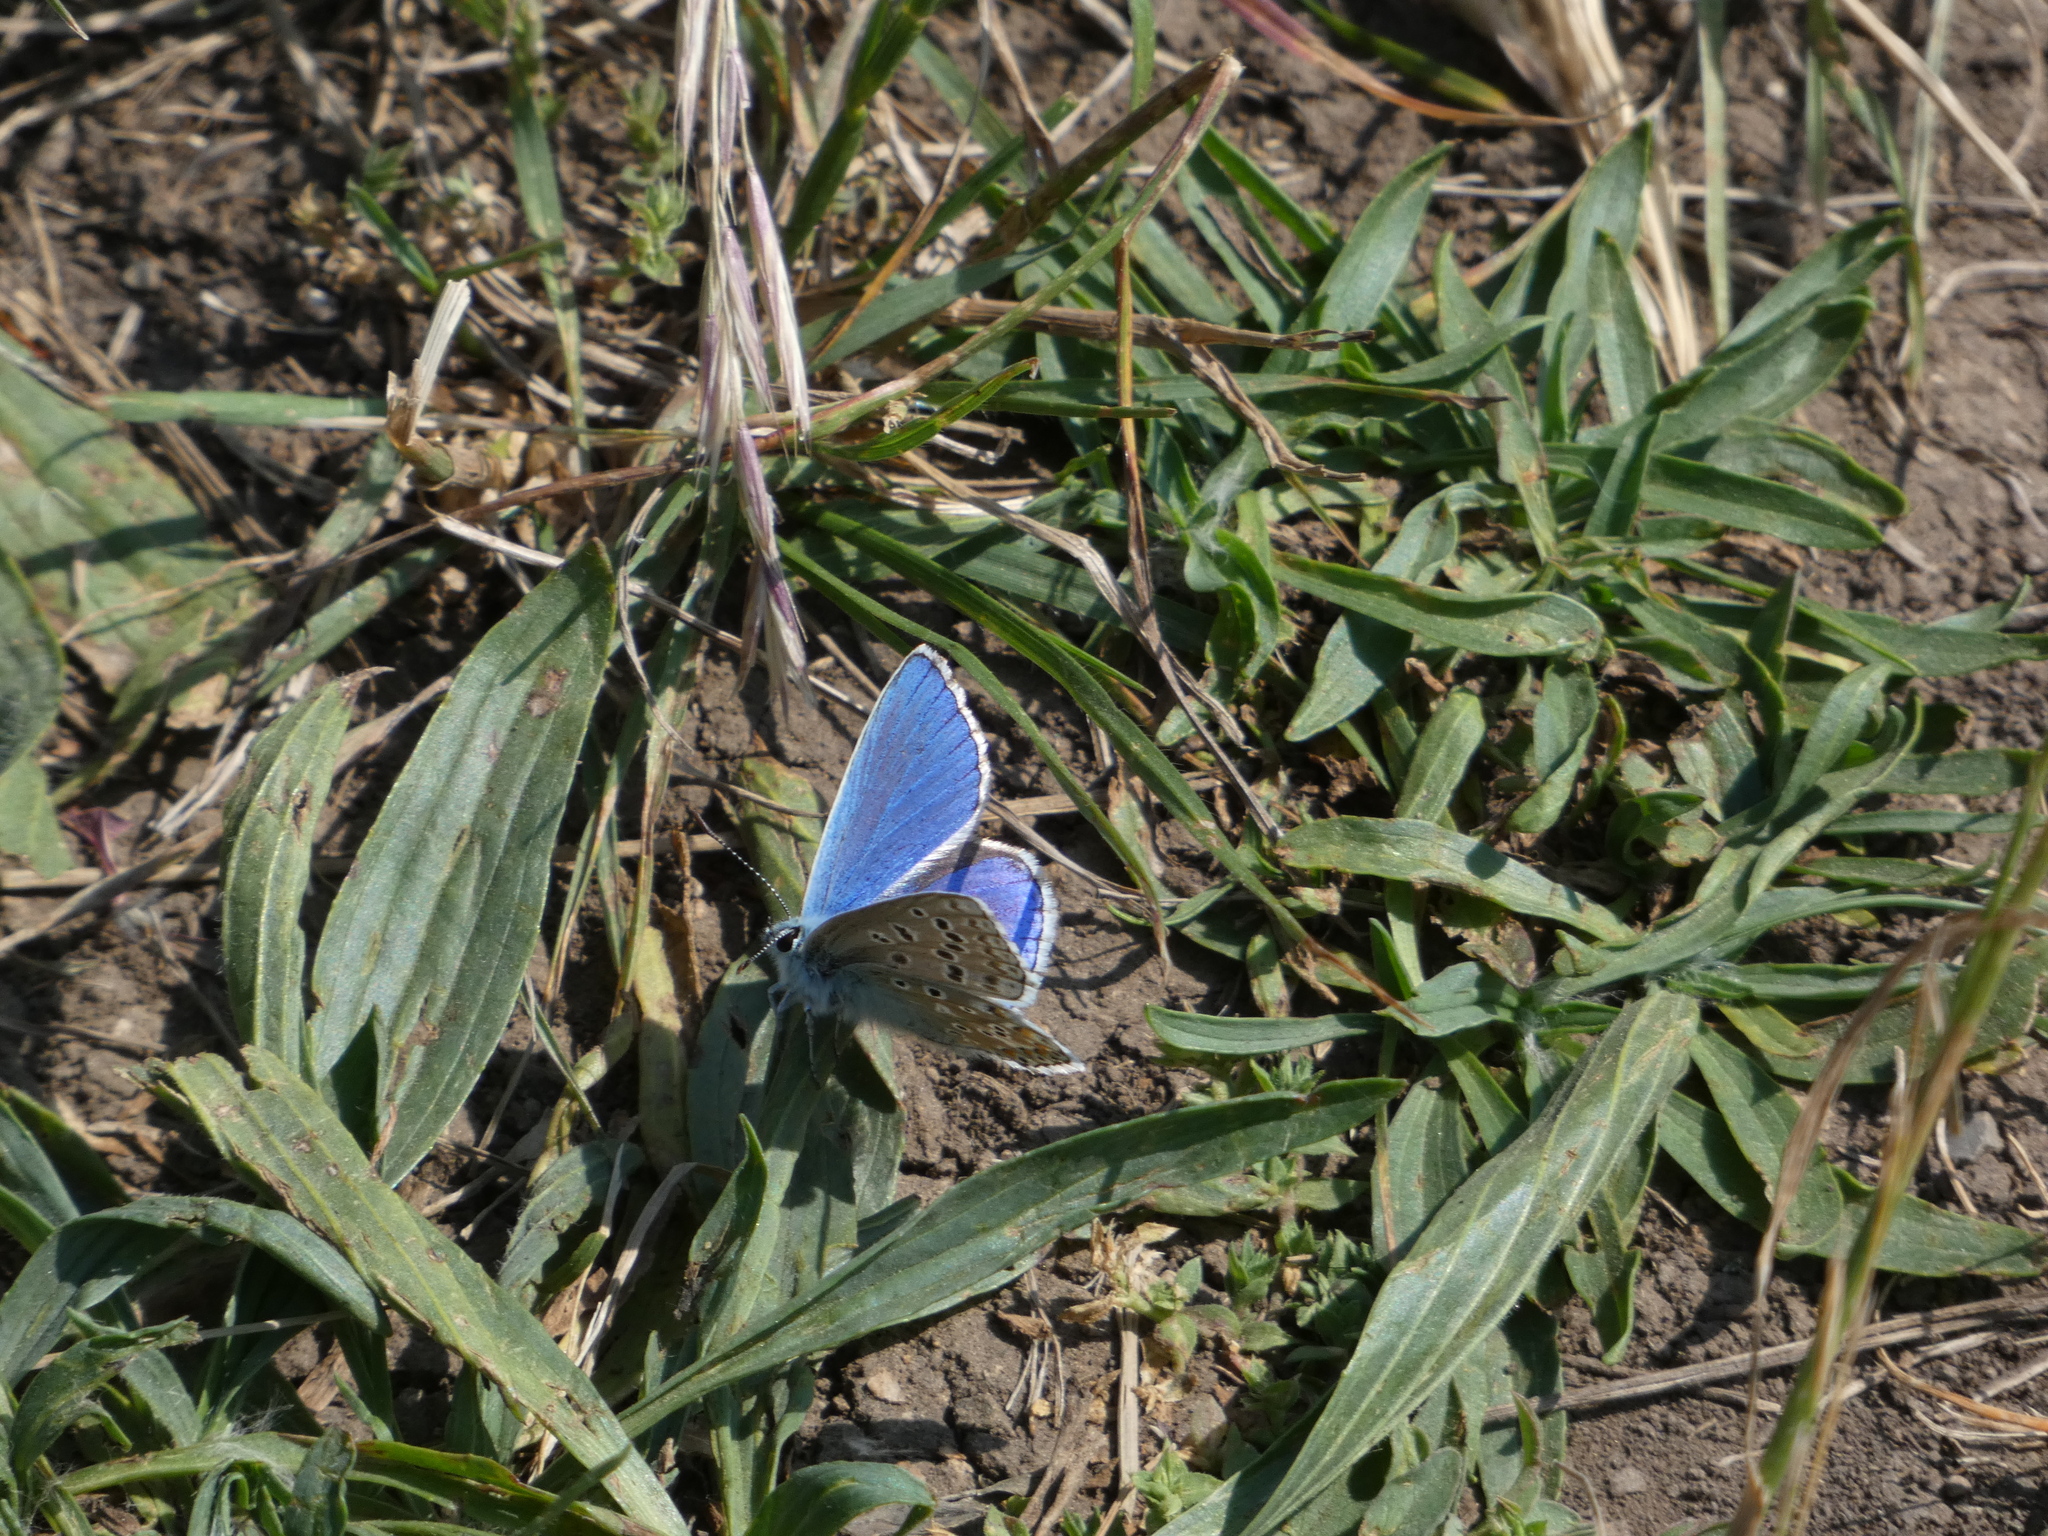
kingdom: Animalia
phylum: Arthropoda
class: Insecta
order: Lepidoptera
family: Lycaenidae
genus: Lysandra
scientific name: Lysandra bellargus
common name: Adonis blue
